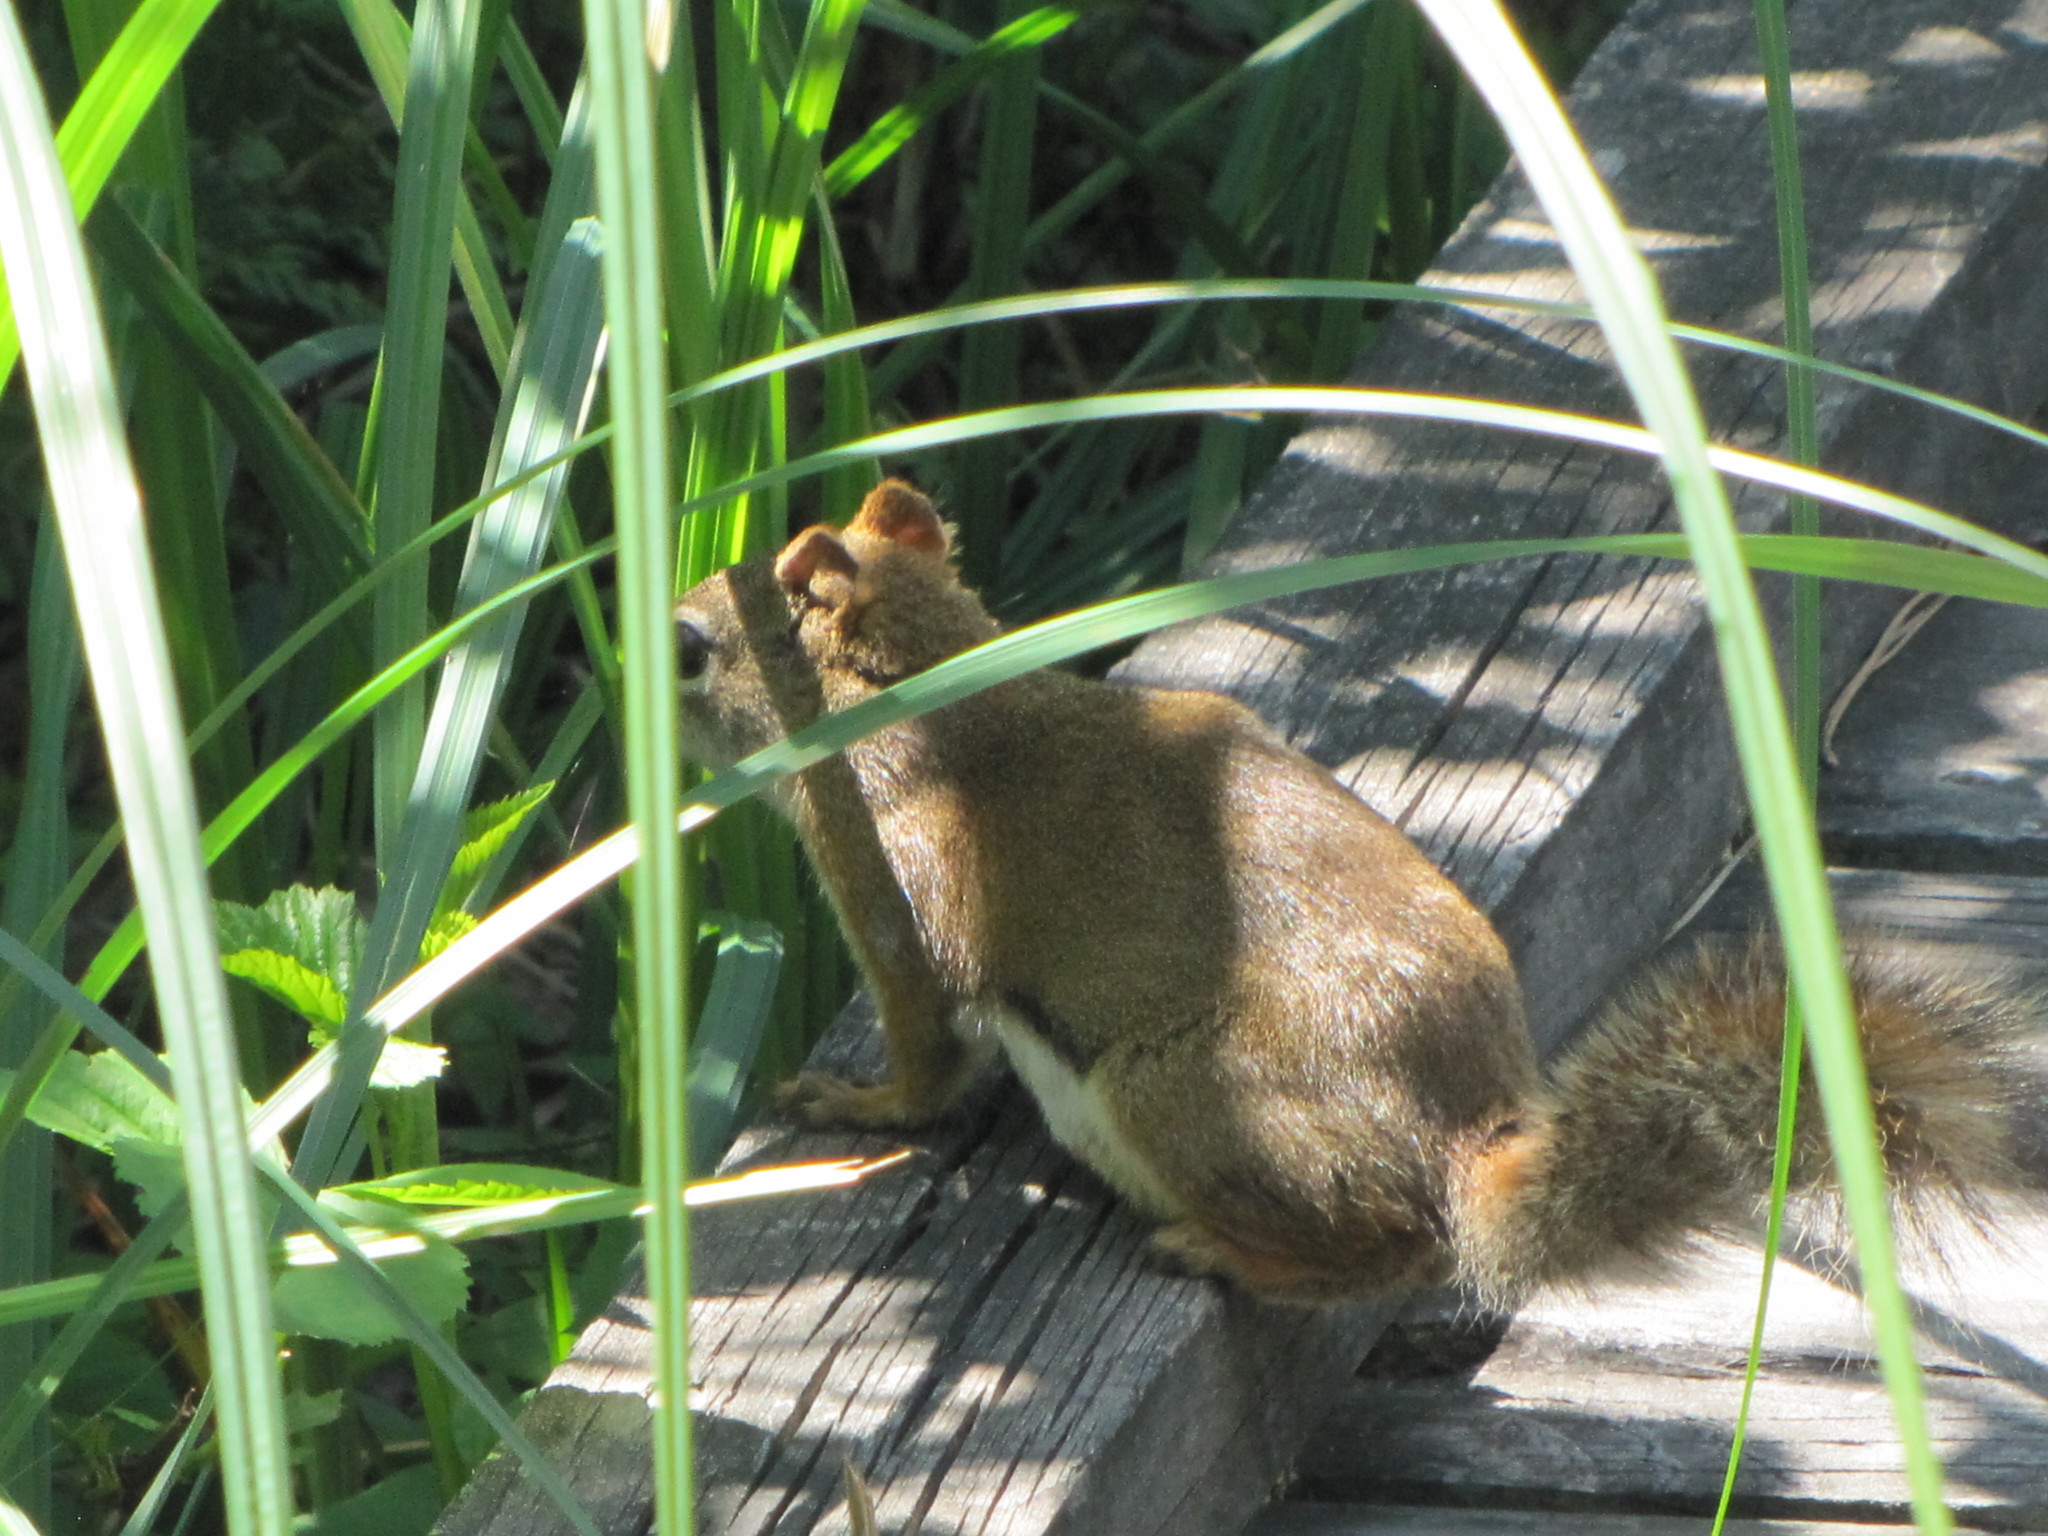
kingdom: Animalia
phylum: Chordata
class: Mammalia
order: Rodentia
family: Sciuridae
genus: Tamiasciurus
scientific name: Tamiasciurus hudsonicus
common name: Red squirrel
